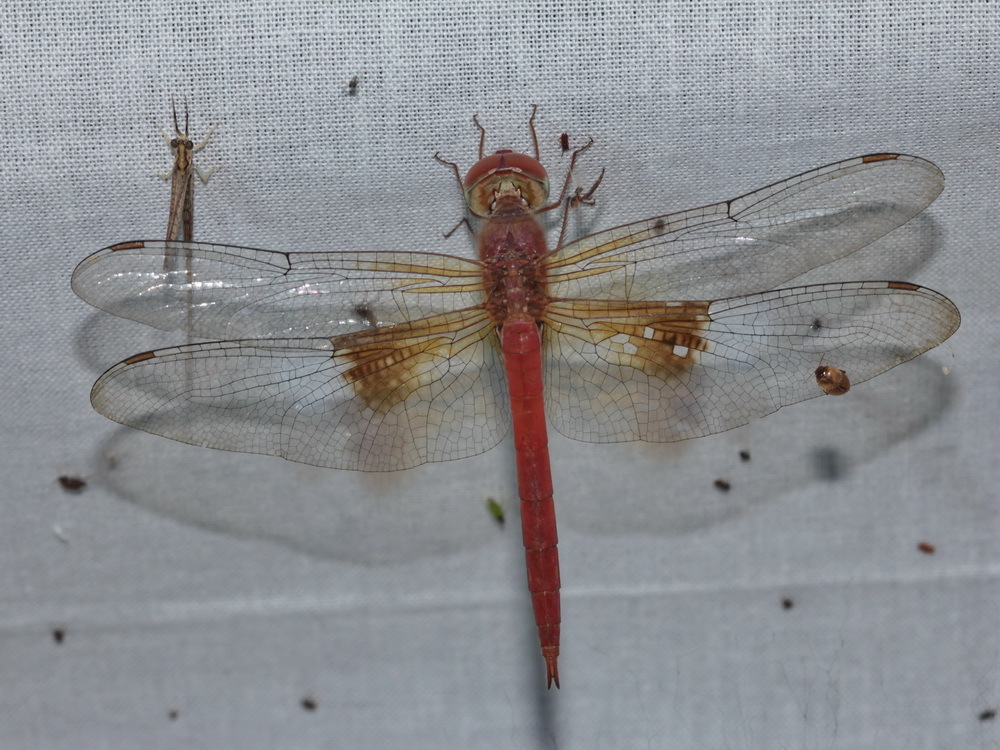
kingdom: Animalia
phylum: Arthropoda
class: Insecta
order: Odonata
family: Libellulidae
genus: Tholymis
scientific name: Tholymis tillarga
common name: Coral-tailed cloud wing
